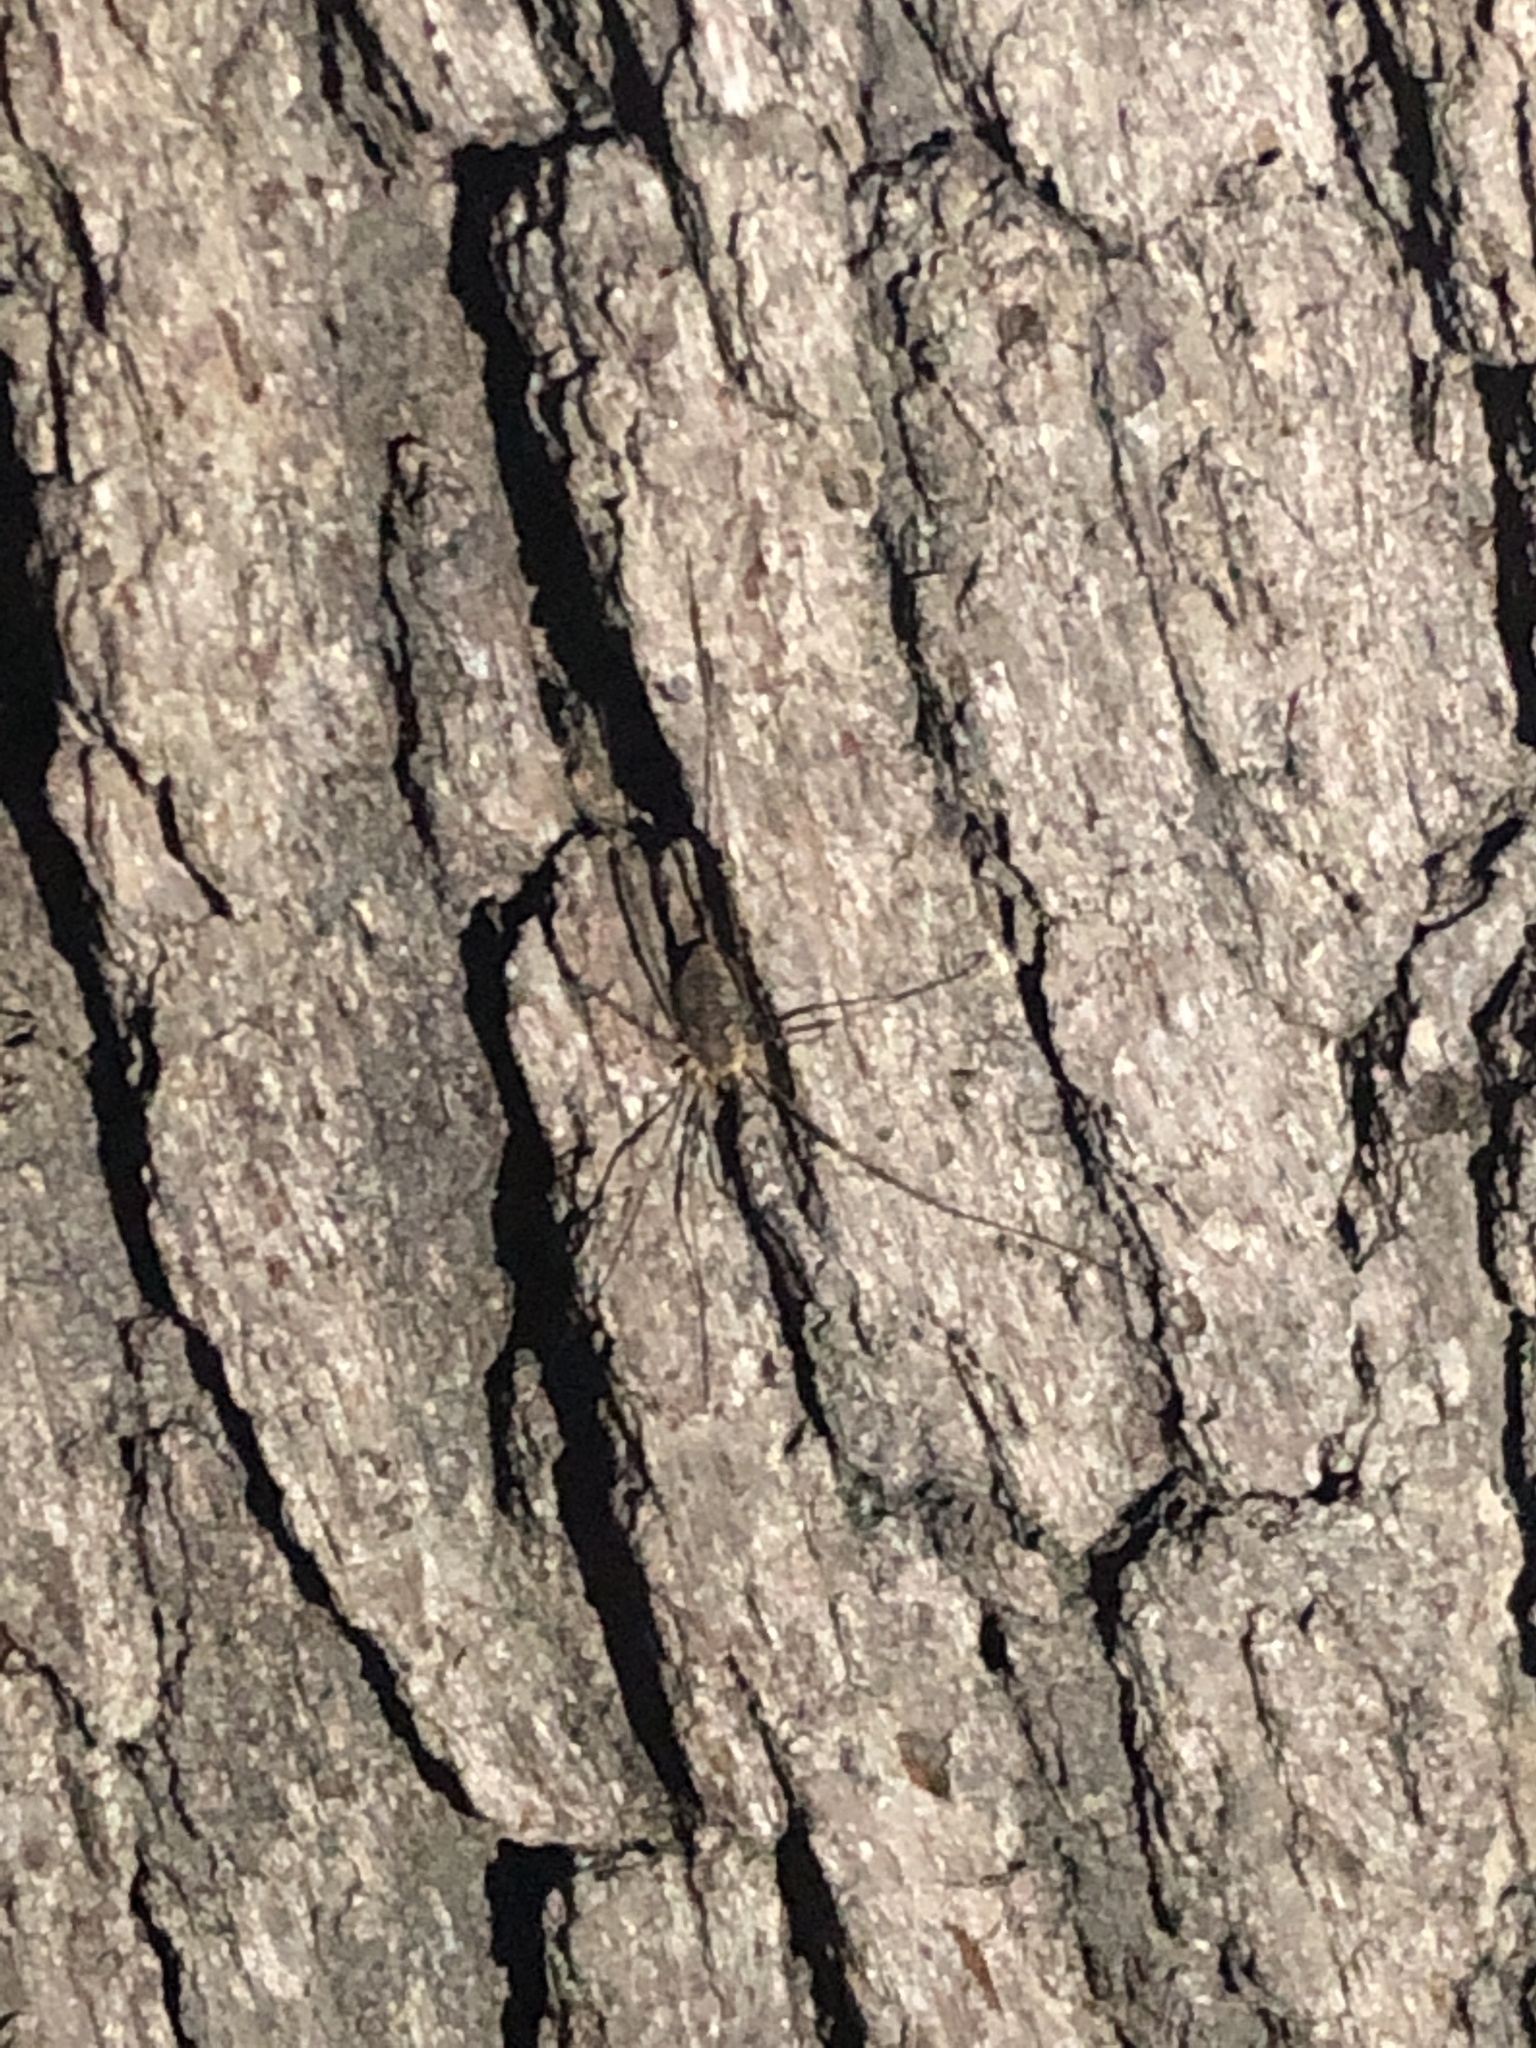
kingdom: Animalia
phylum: Arthropoda
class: Arachnida
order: Opiliones
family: Phalangiidae
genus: Phalangium
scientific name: Phalangium opilio
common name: Daddy longleg
